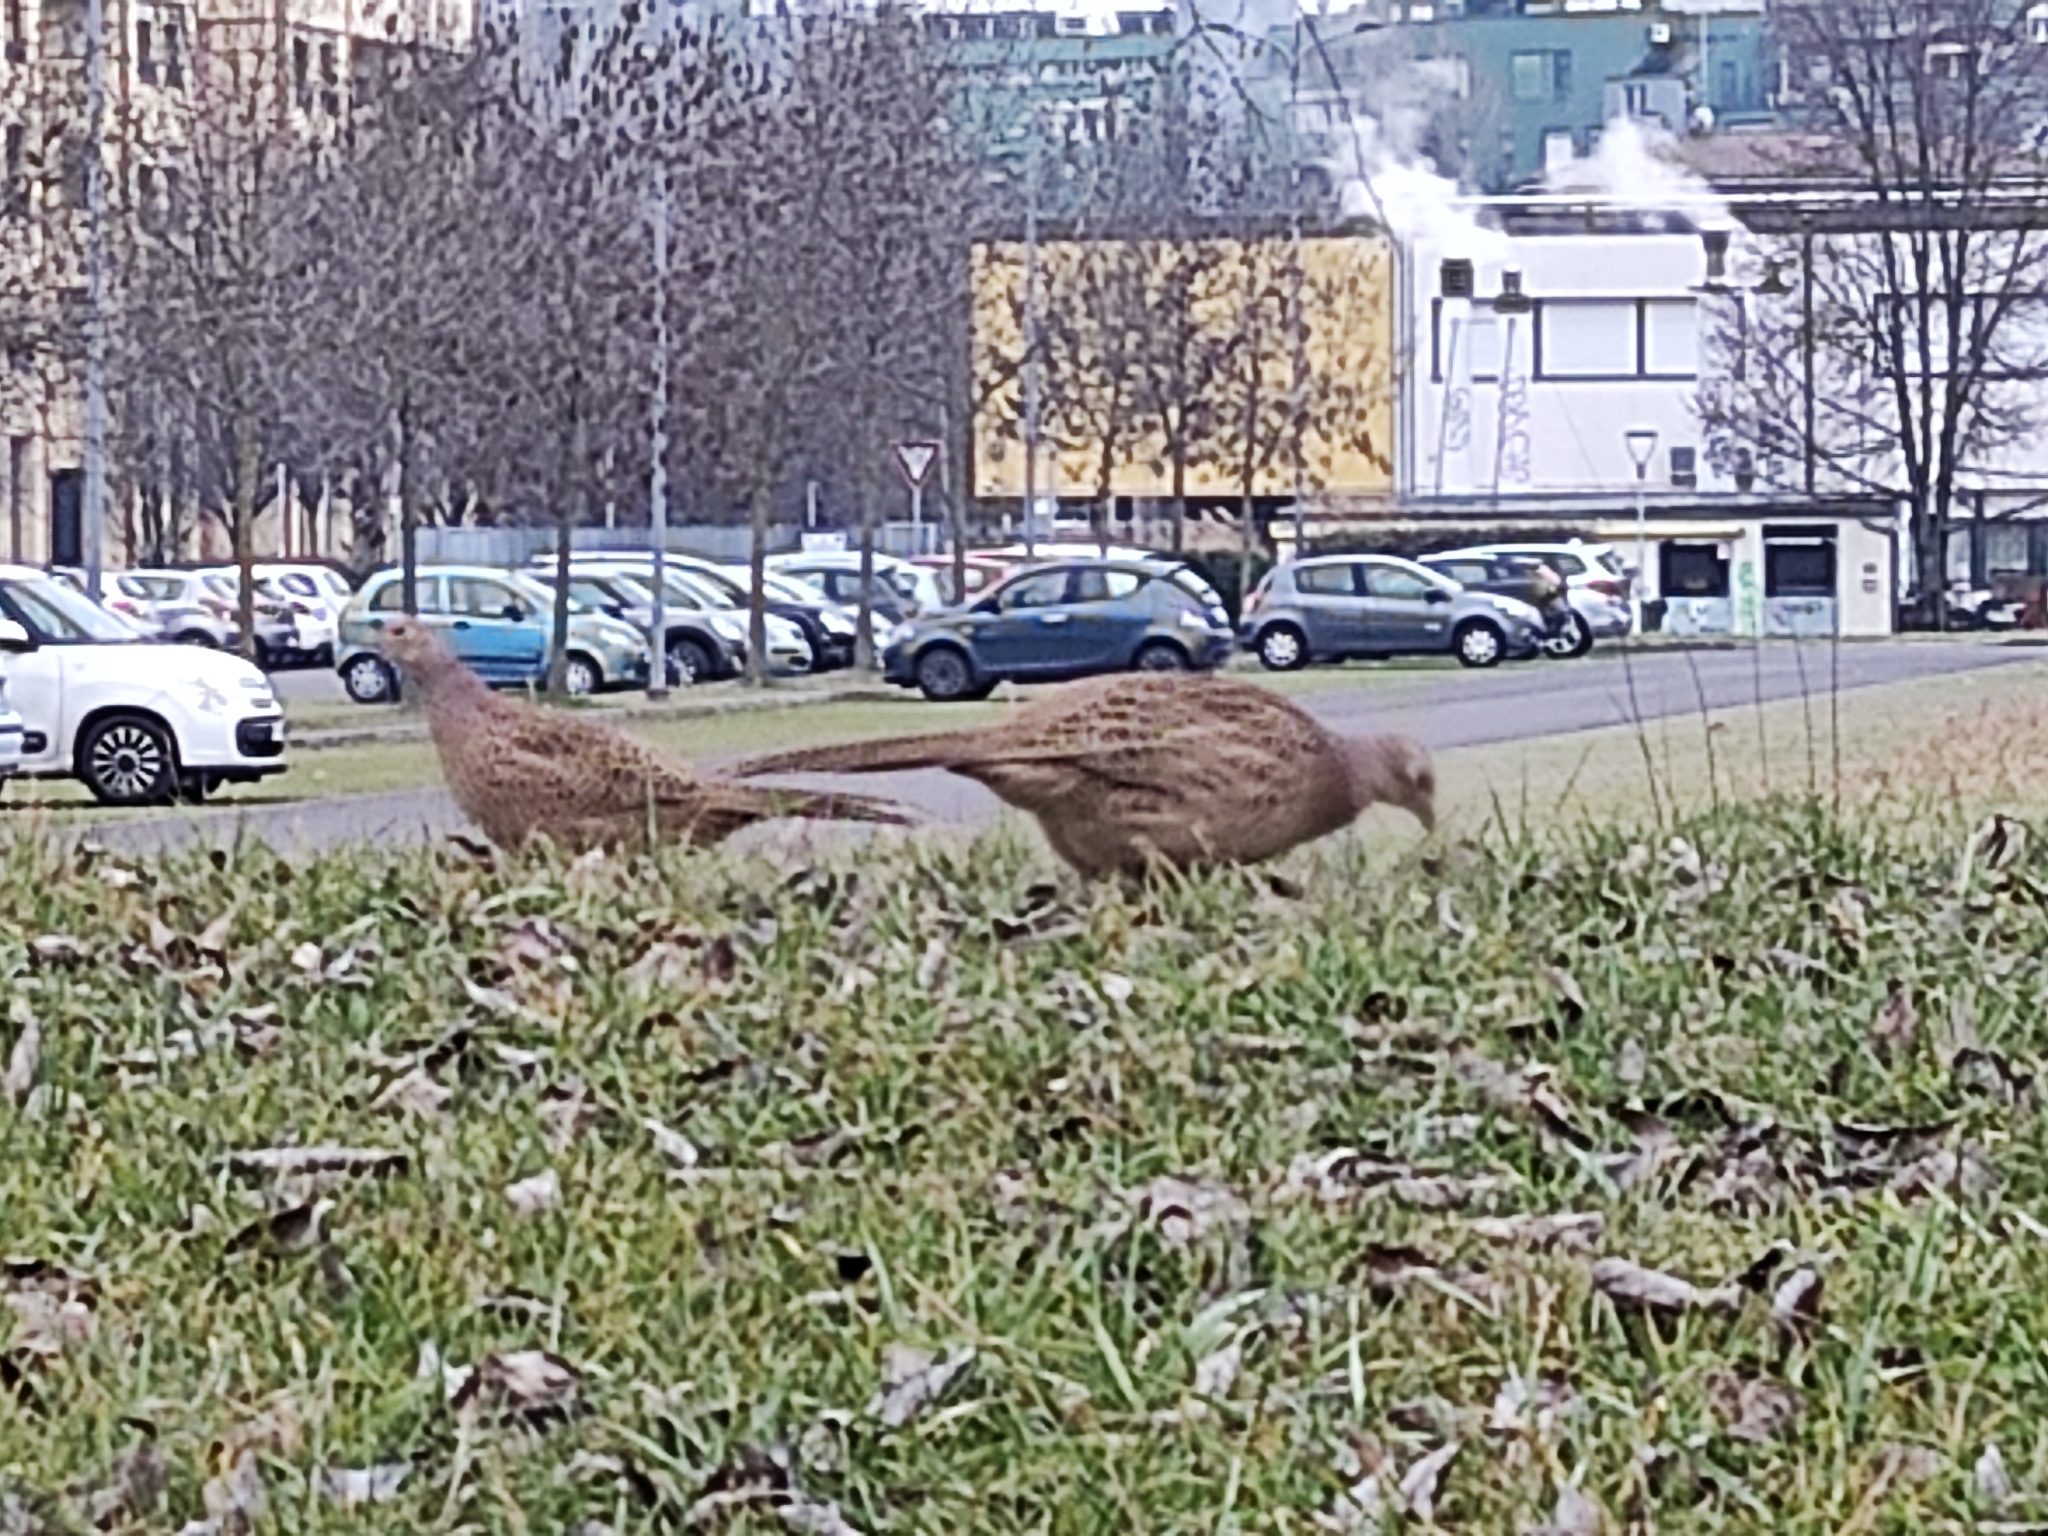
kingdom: Animalia
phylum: Chordata
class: Aves
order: Galliformes
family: Phasianidae
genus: Phasianus
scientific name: Phasianus colchicus
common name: Common pheasant
